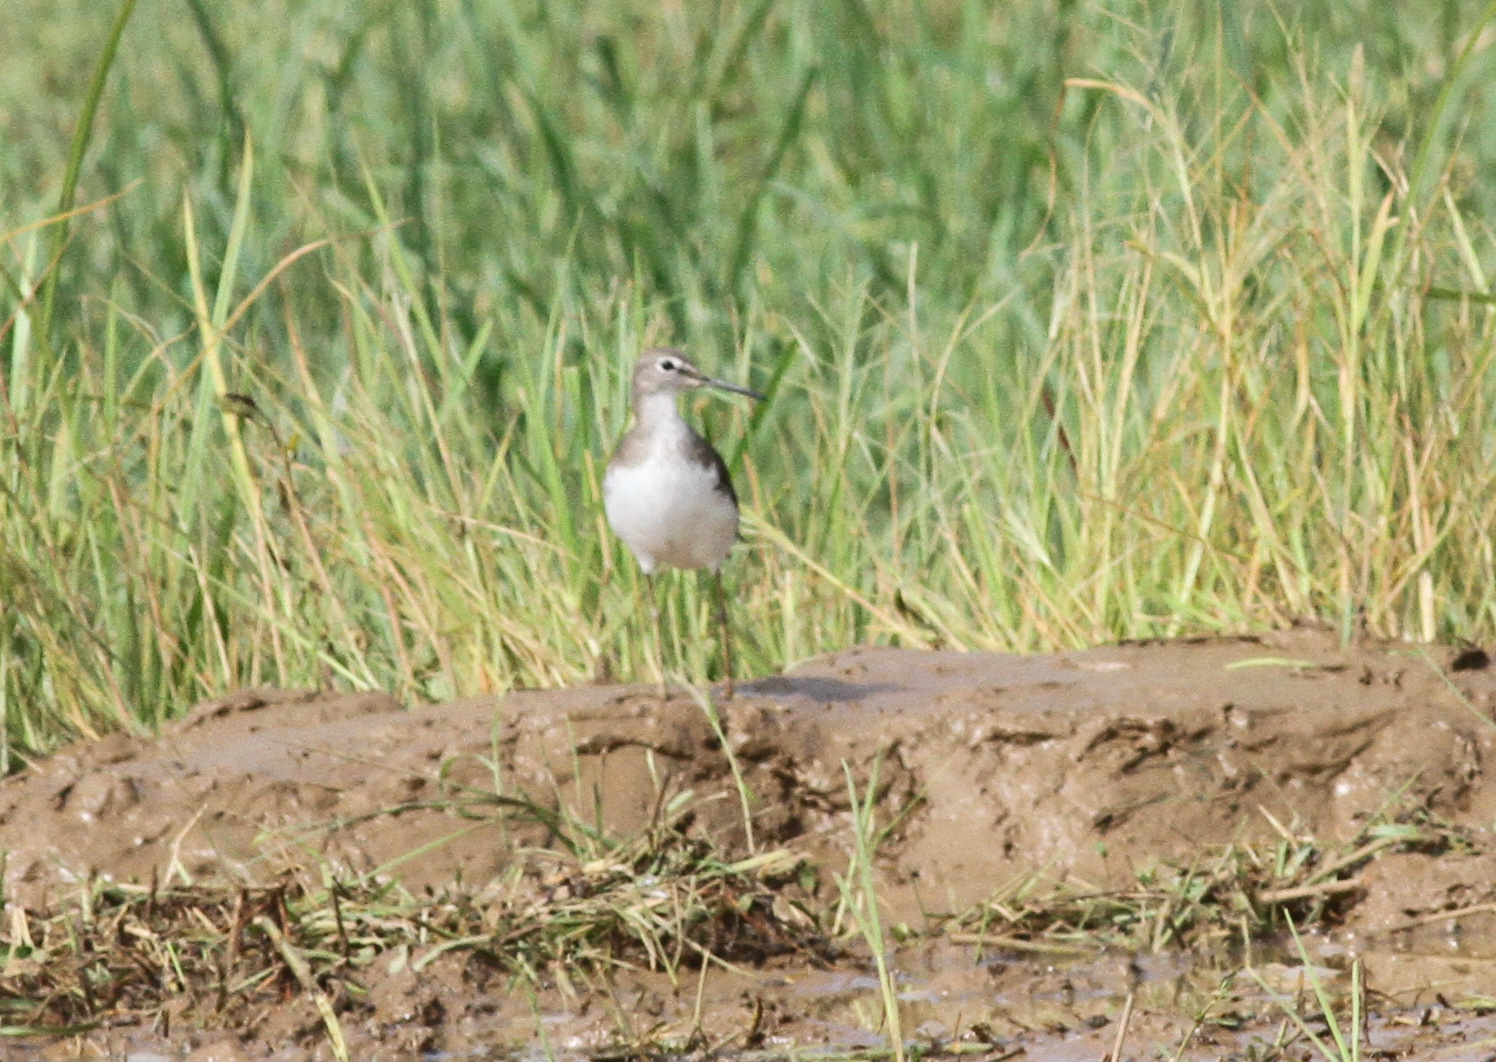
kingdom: Animalia
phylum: Chordata
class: Aves
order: Charadriiformes
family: Scolopacidae
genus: Tringa
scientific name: Tringa ochropus
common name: Green sandpiper
